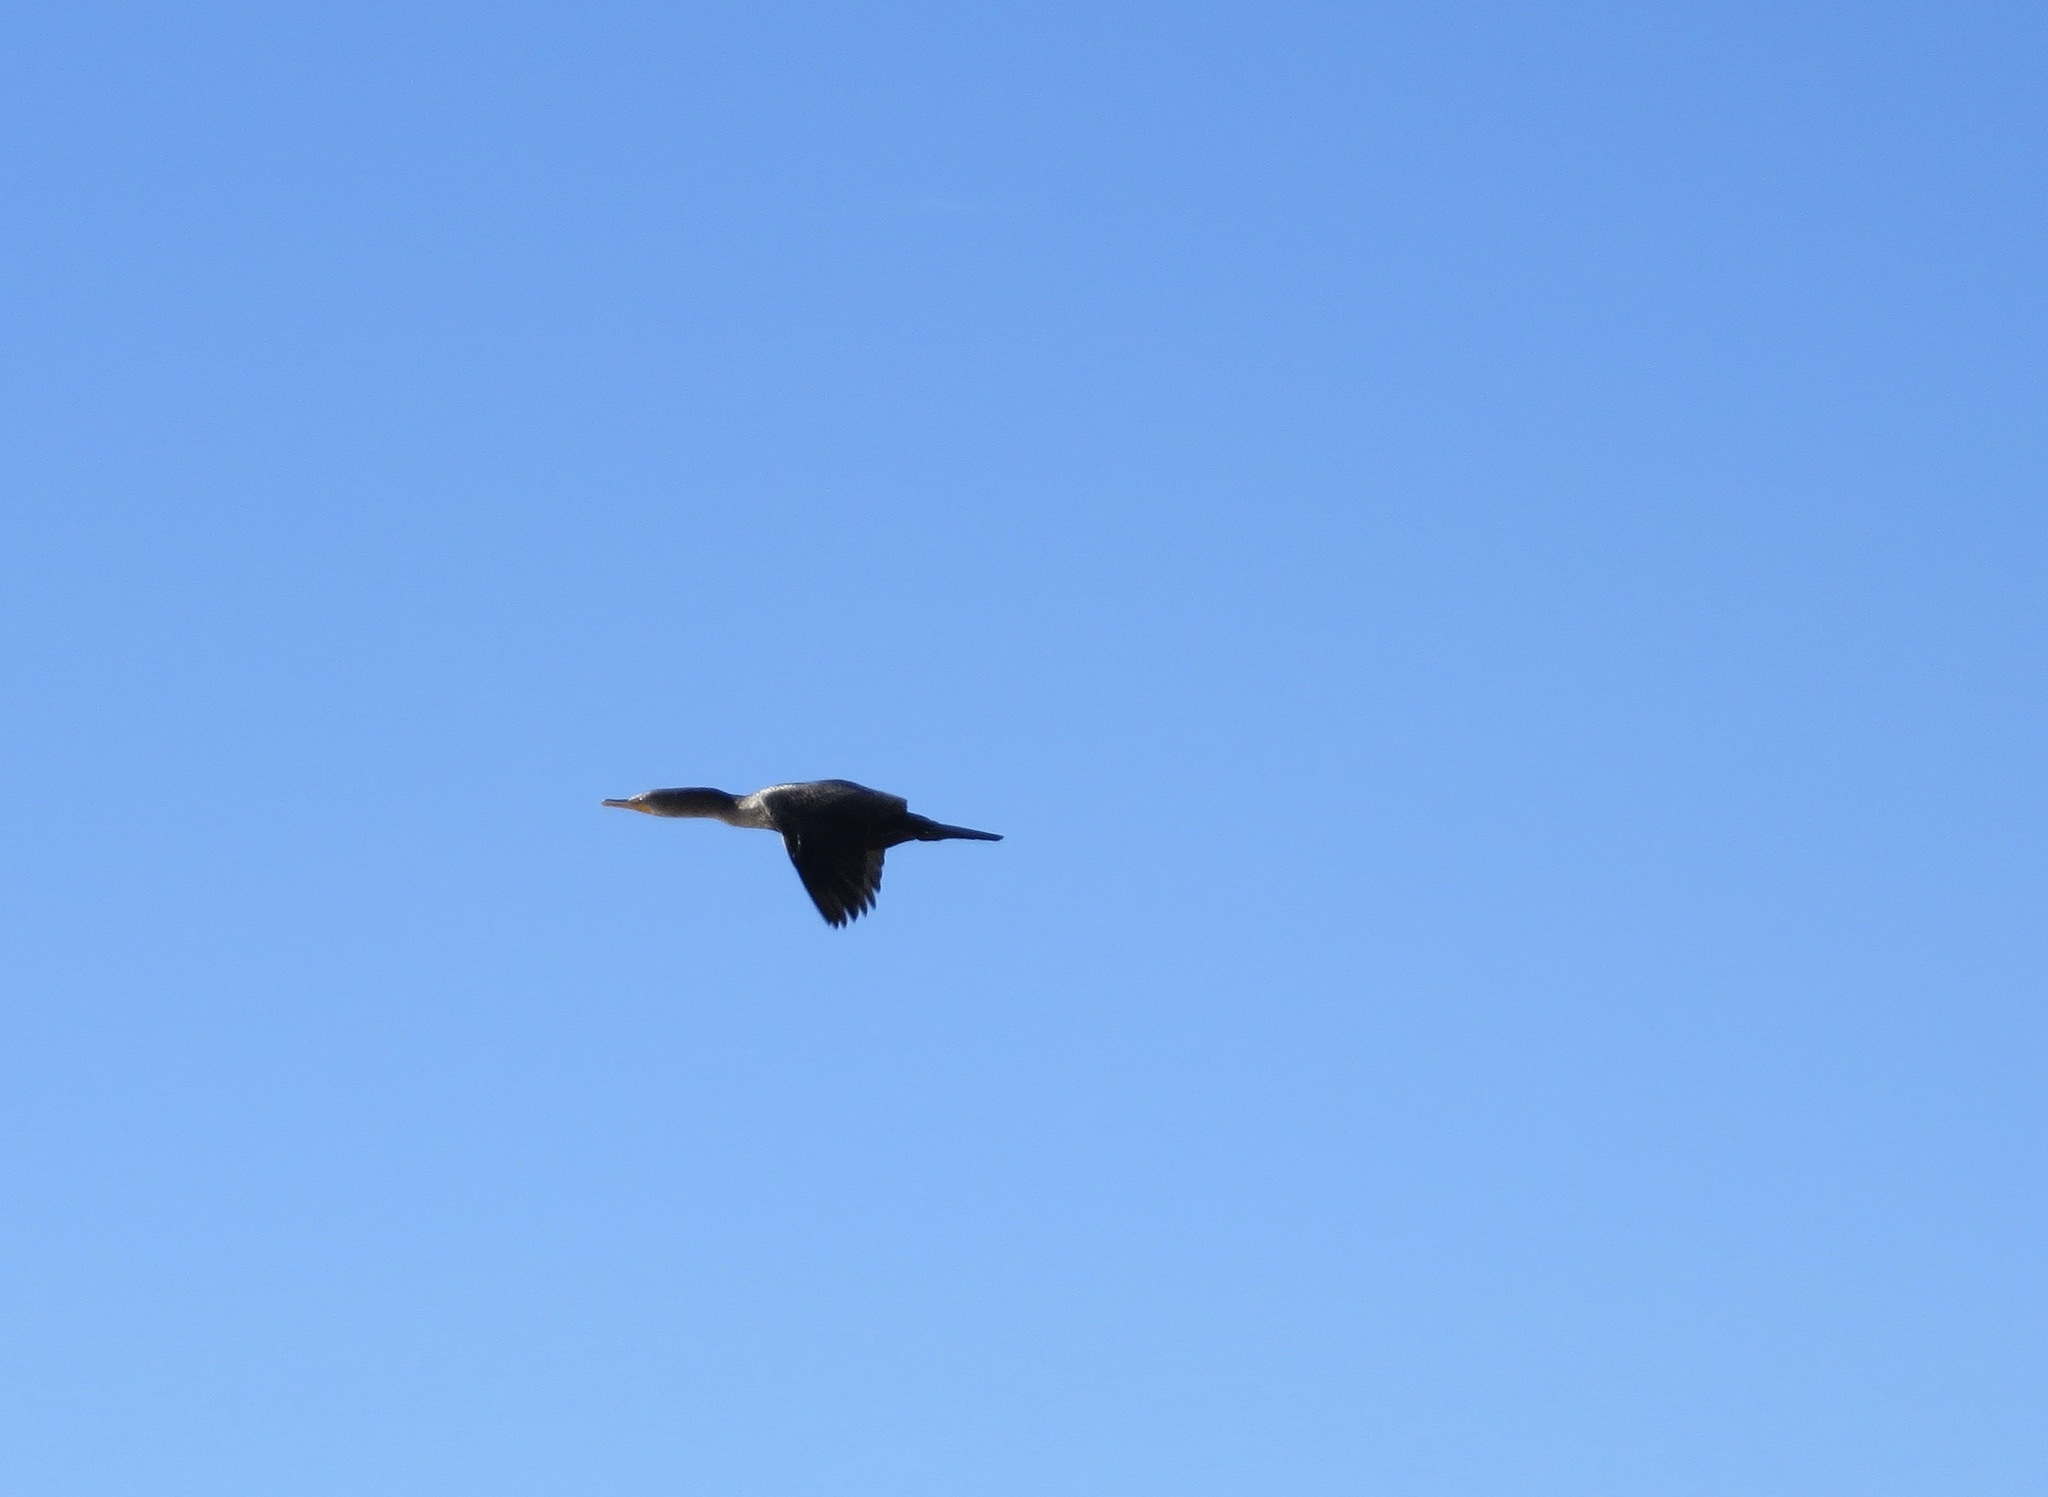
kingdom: Animalia
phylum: Chordata
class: Aves
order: Suliformes
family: Phalacrocoracidae
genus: Phalacrocorax
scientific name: Phalacrocorax auritus
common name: Double-crested cormorant
